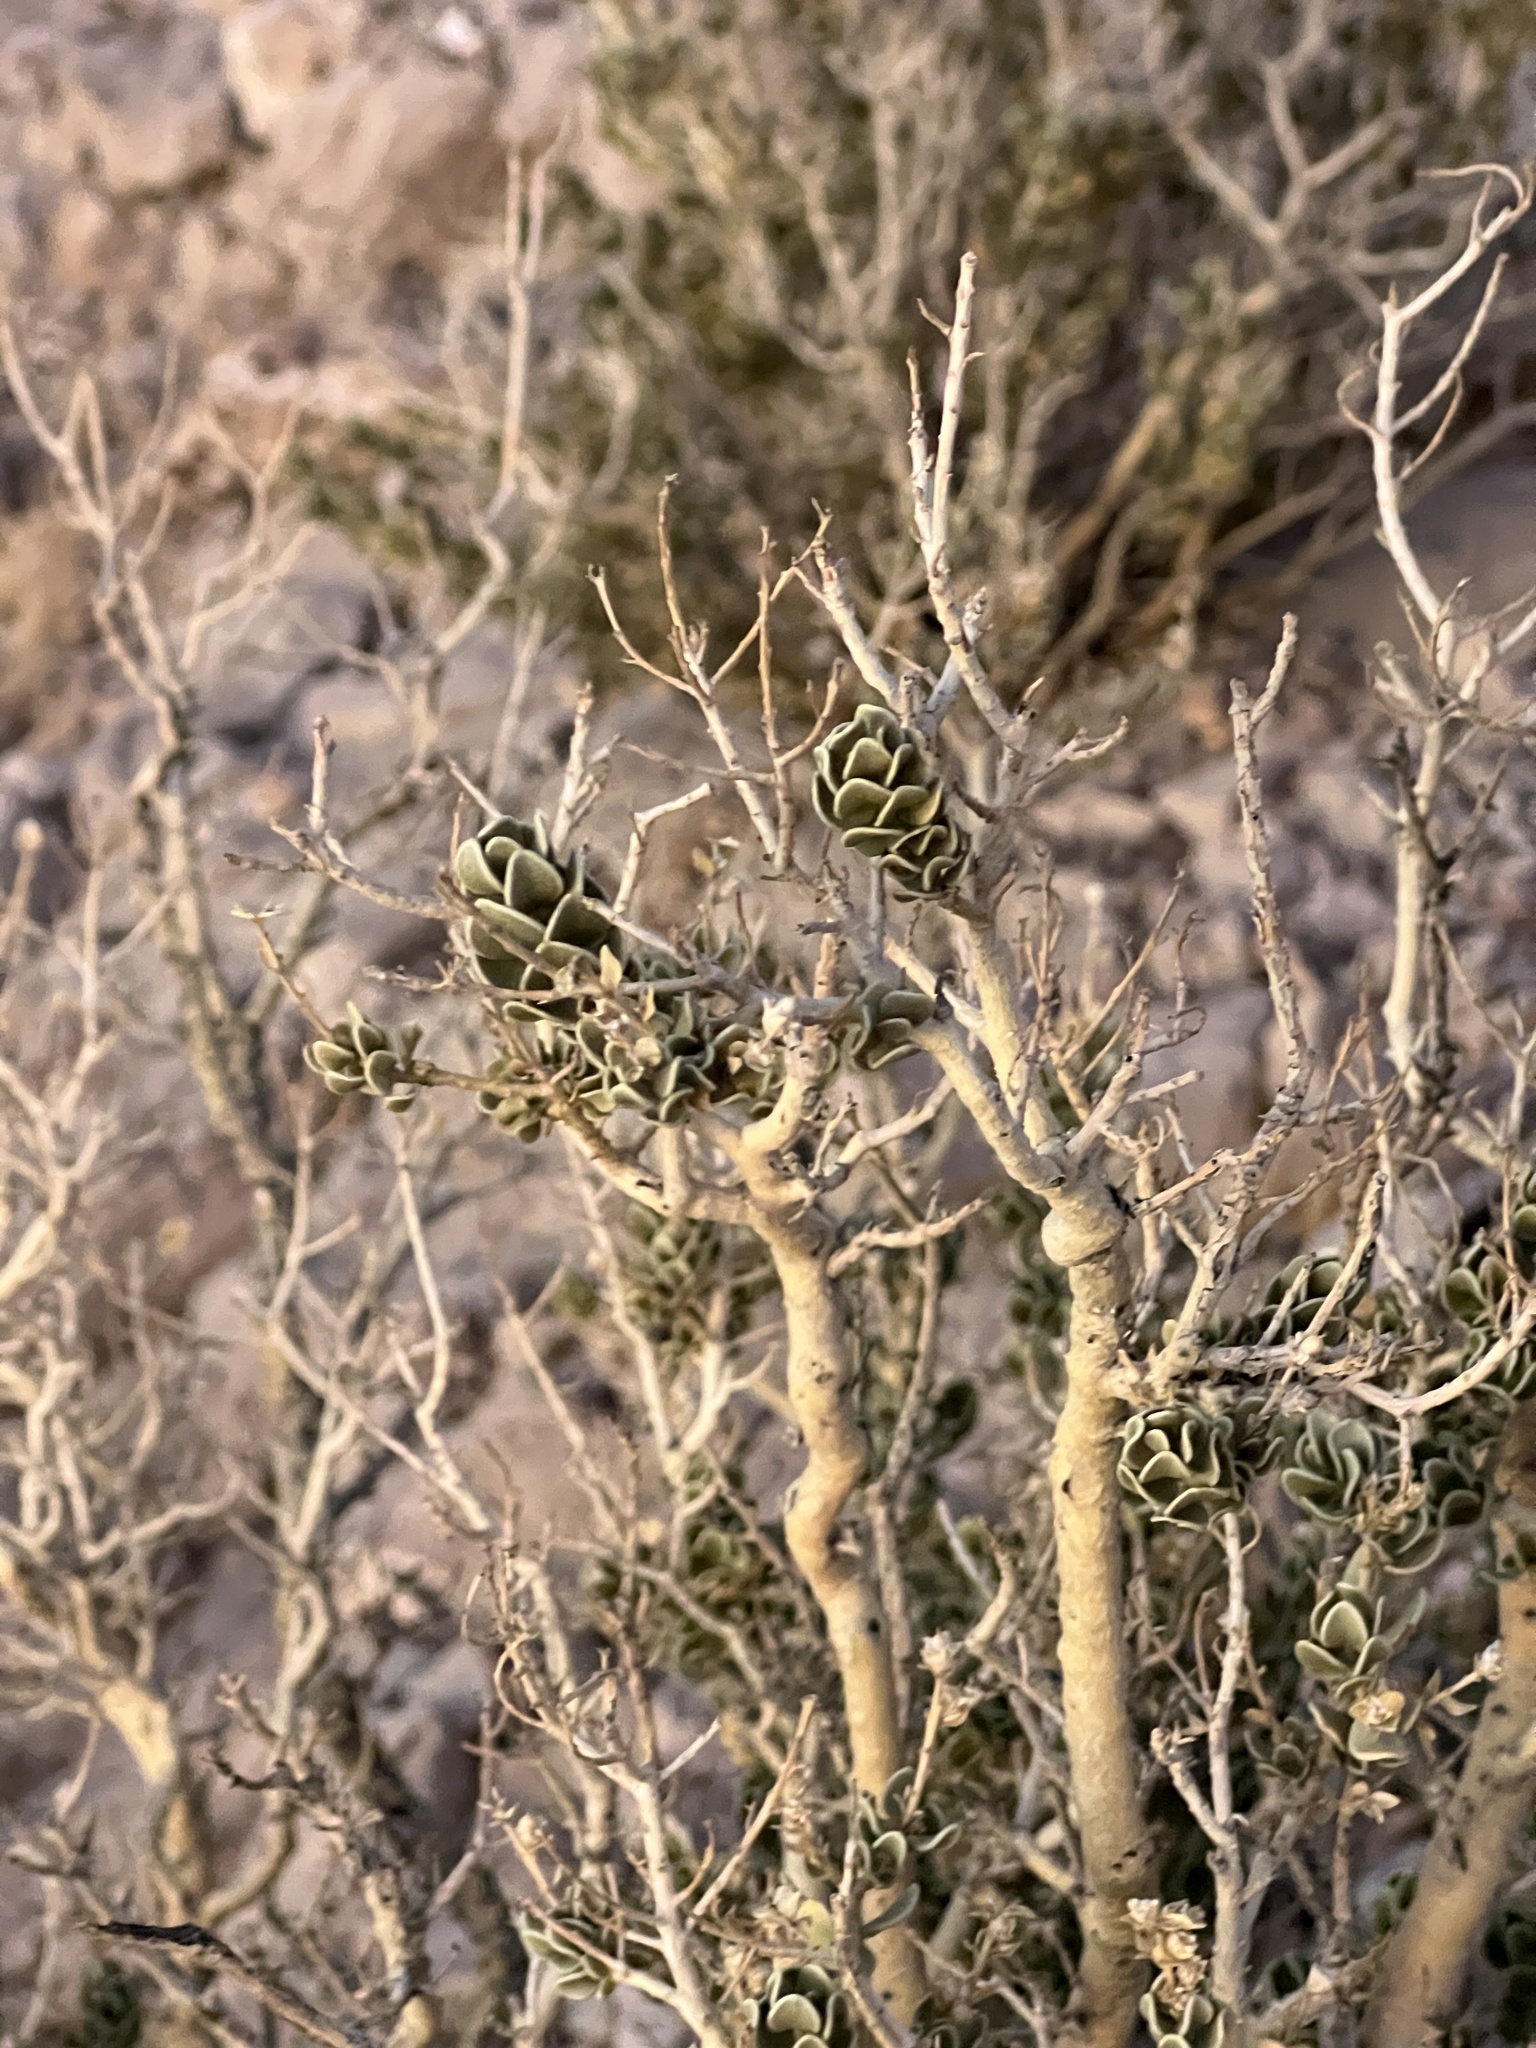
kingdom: Plantae
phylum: Tracheophyta
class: Magnoliopsida
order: Celastrales
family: Celastraceae
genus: Mortonia
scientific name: Mortonia utahensis
